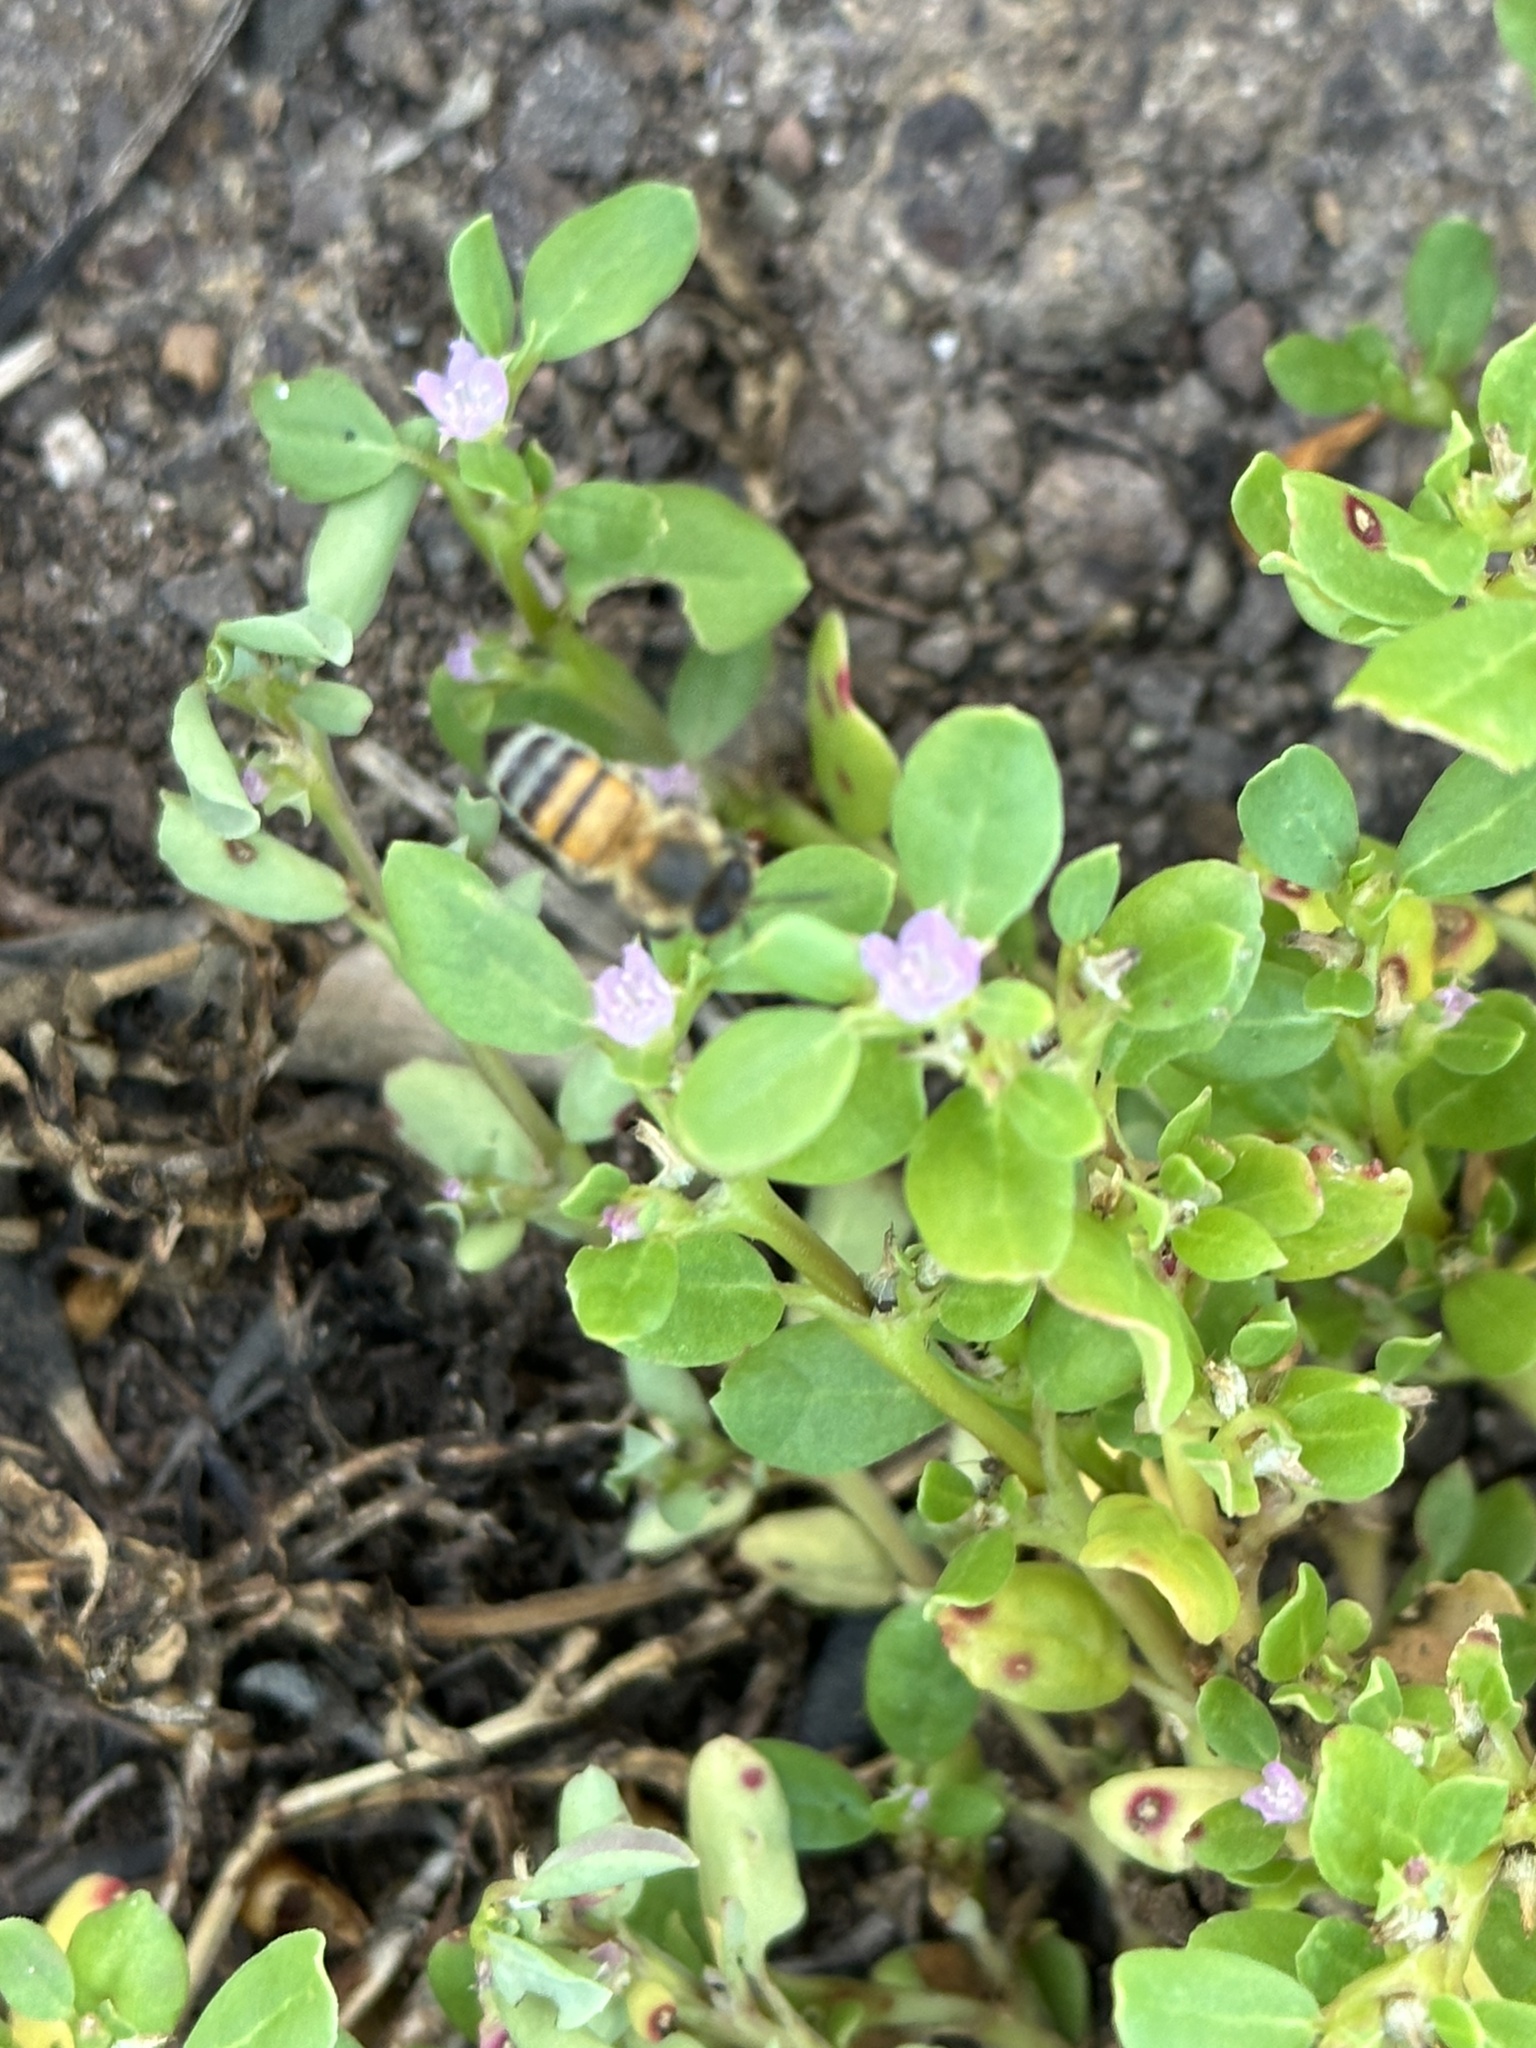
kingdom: Animalia
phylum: Arthropoda
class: Insecta
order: Hymenoptera
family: Apidae
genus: Apis
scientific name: Apis mellifera
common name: Honey bee
